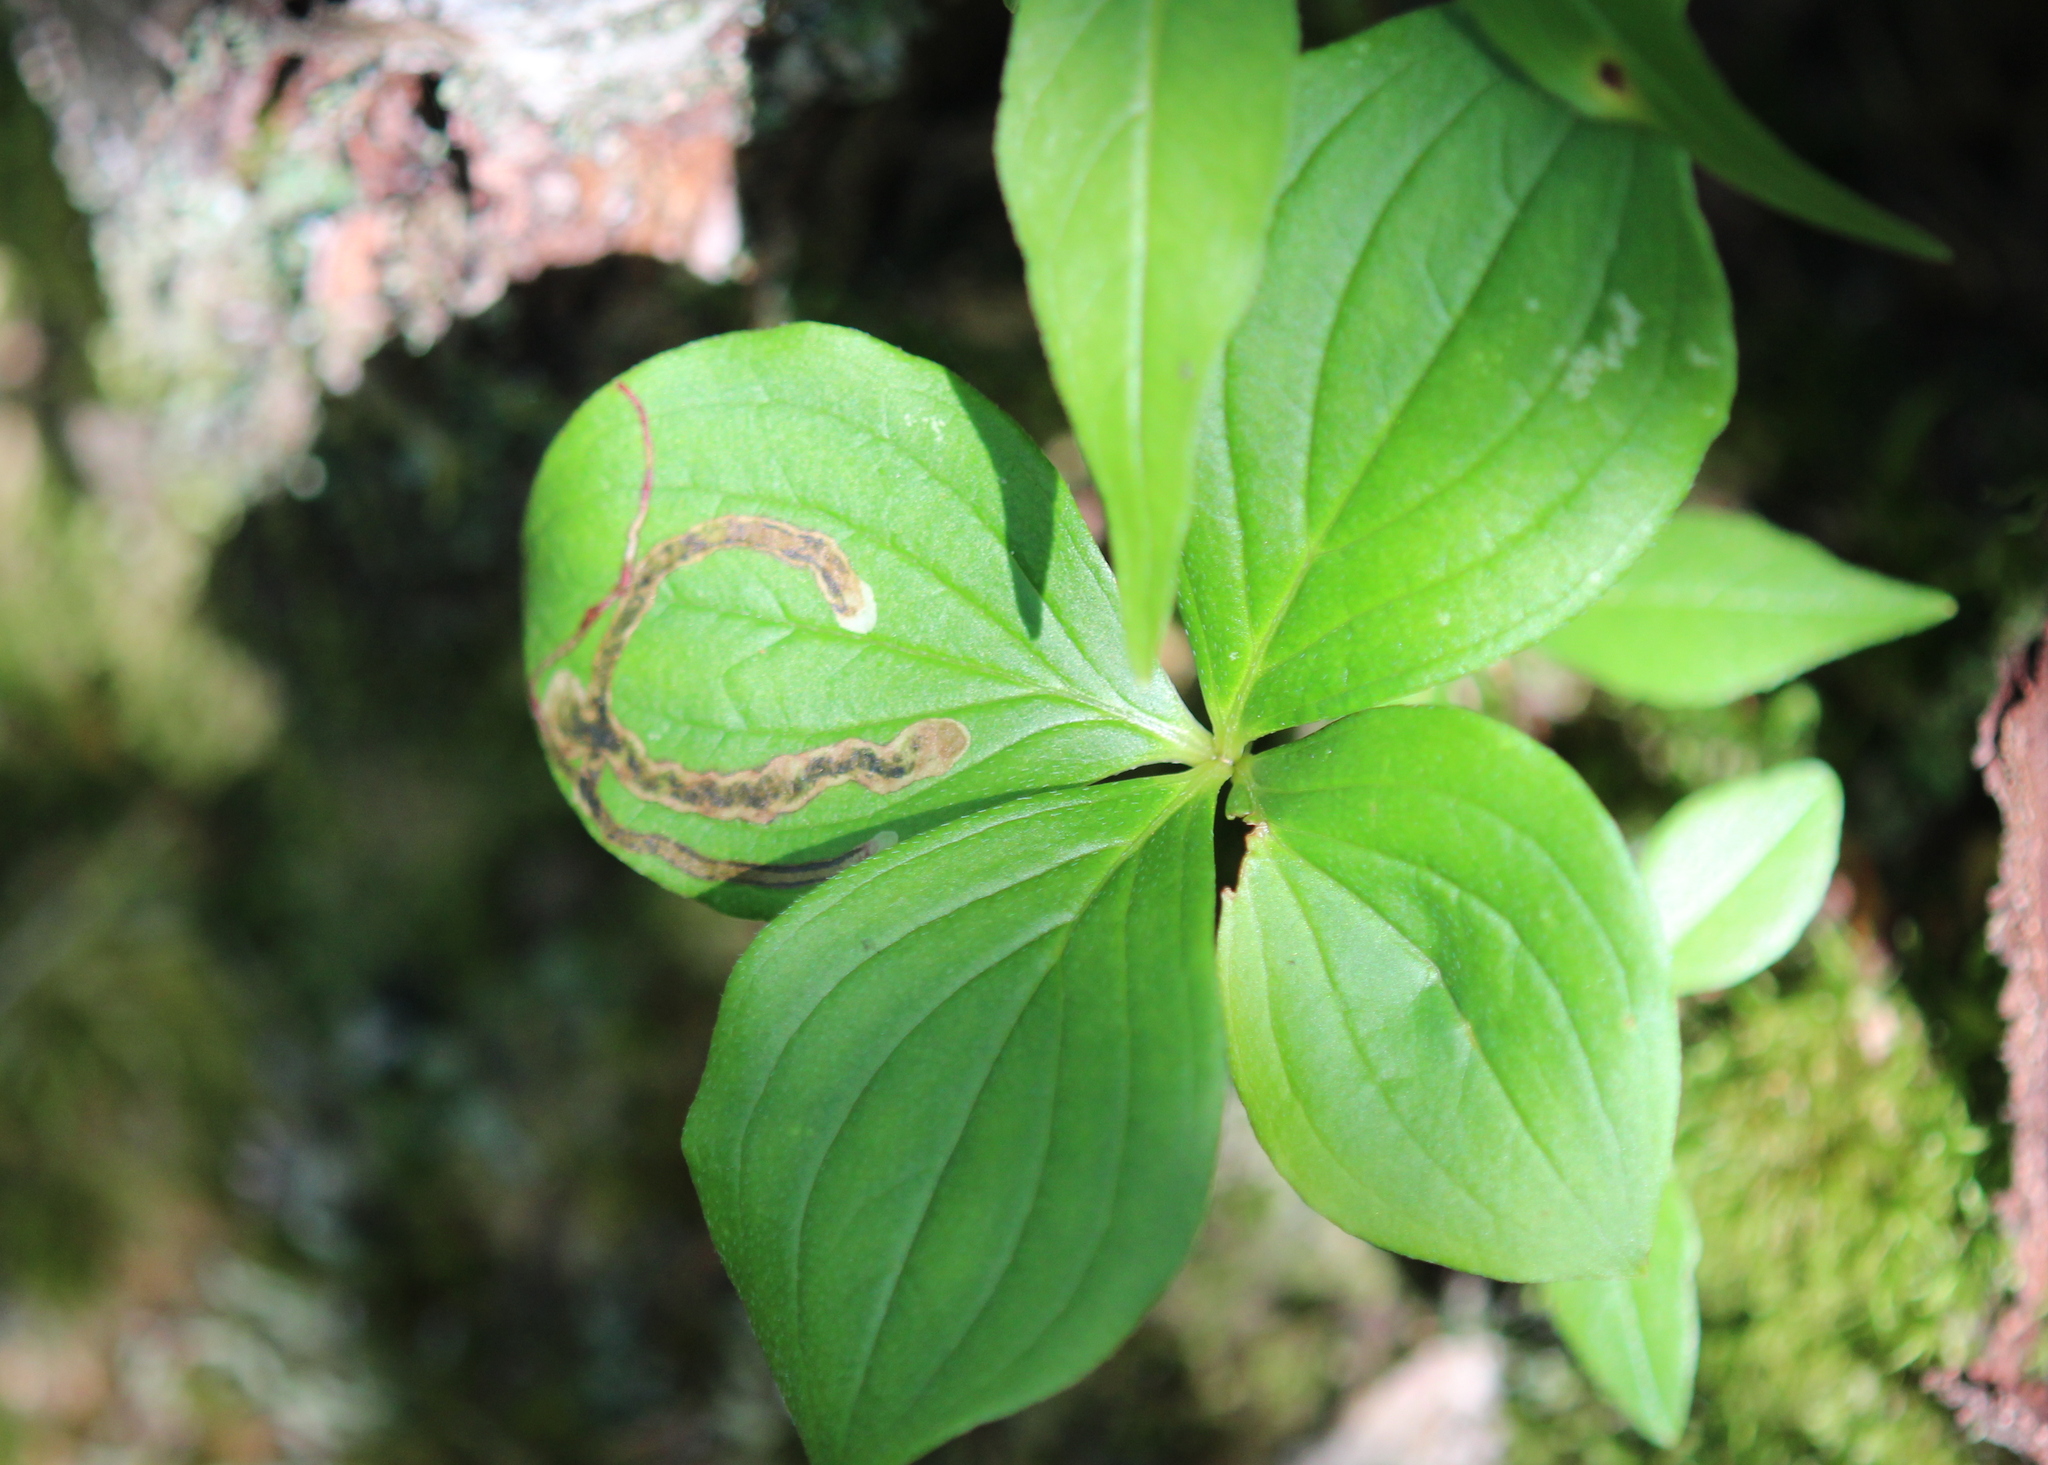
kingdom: Animalia
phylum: Arthropoda
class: Insecta
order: Diptera
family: Agromyzidae
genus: Phytomyza
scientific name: Phytomyza agromyzina
